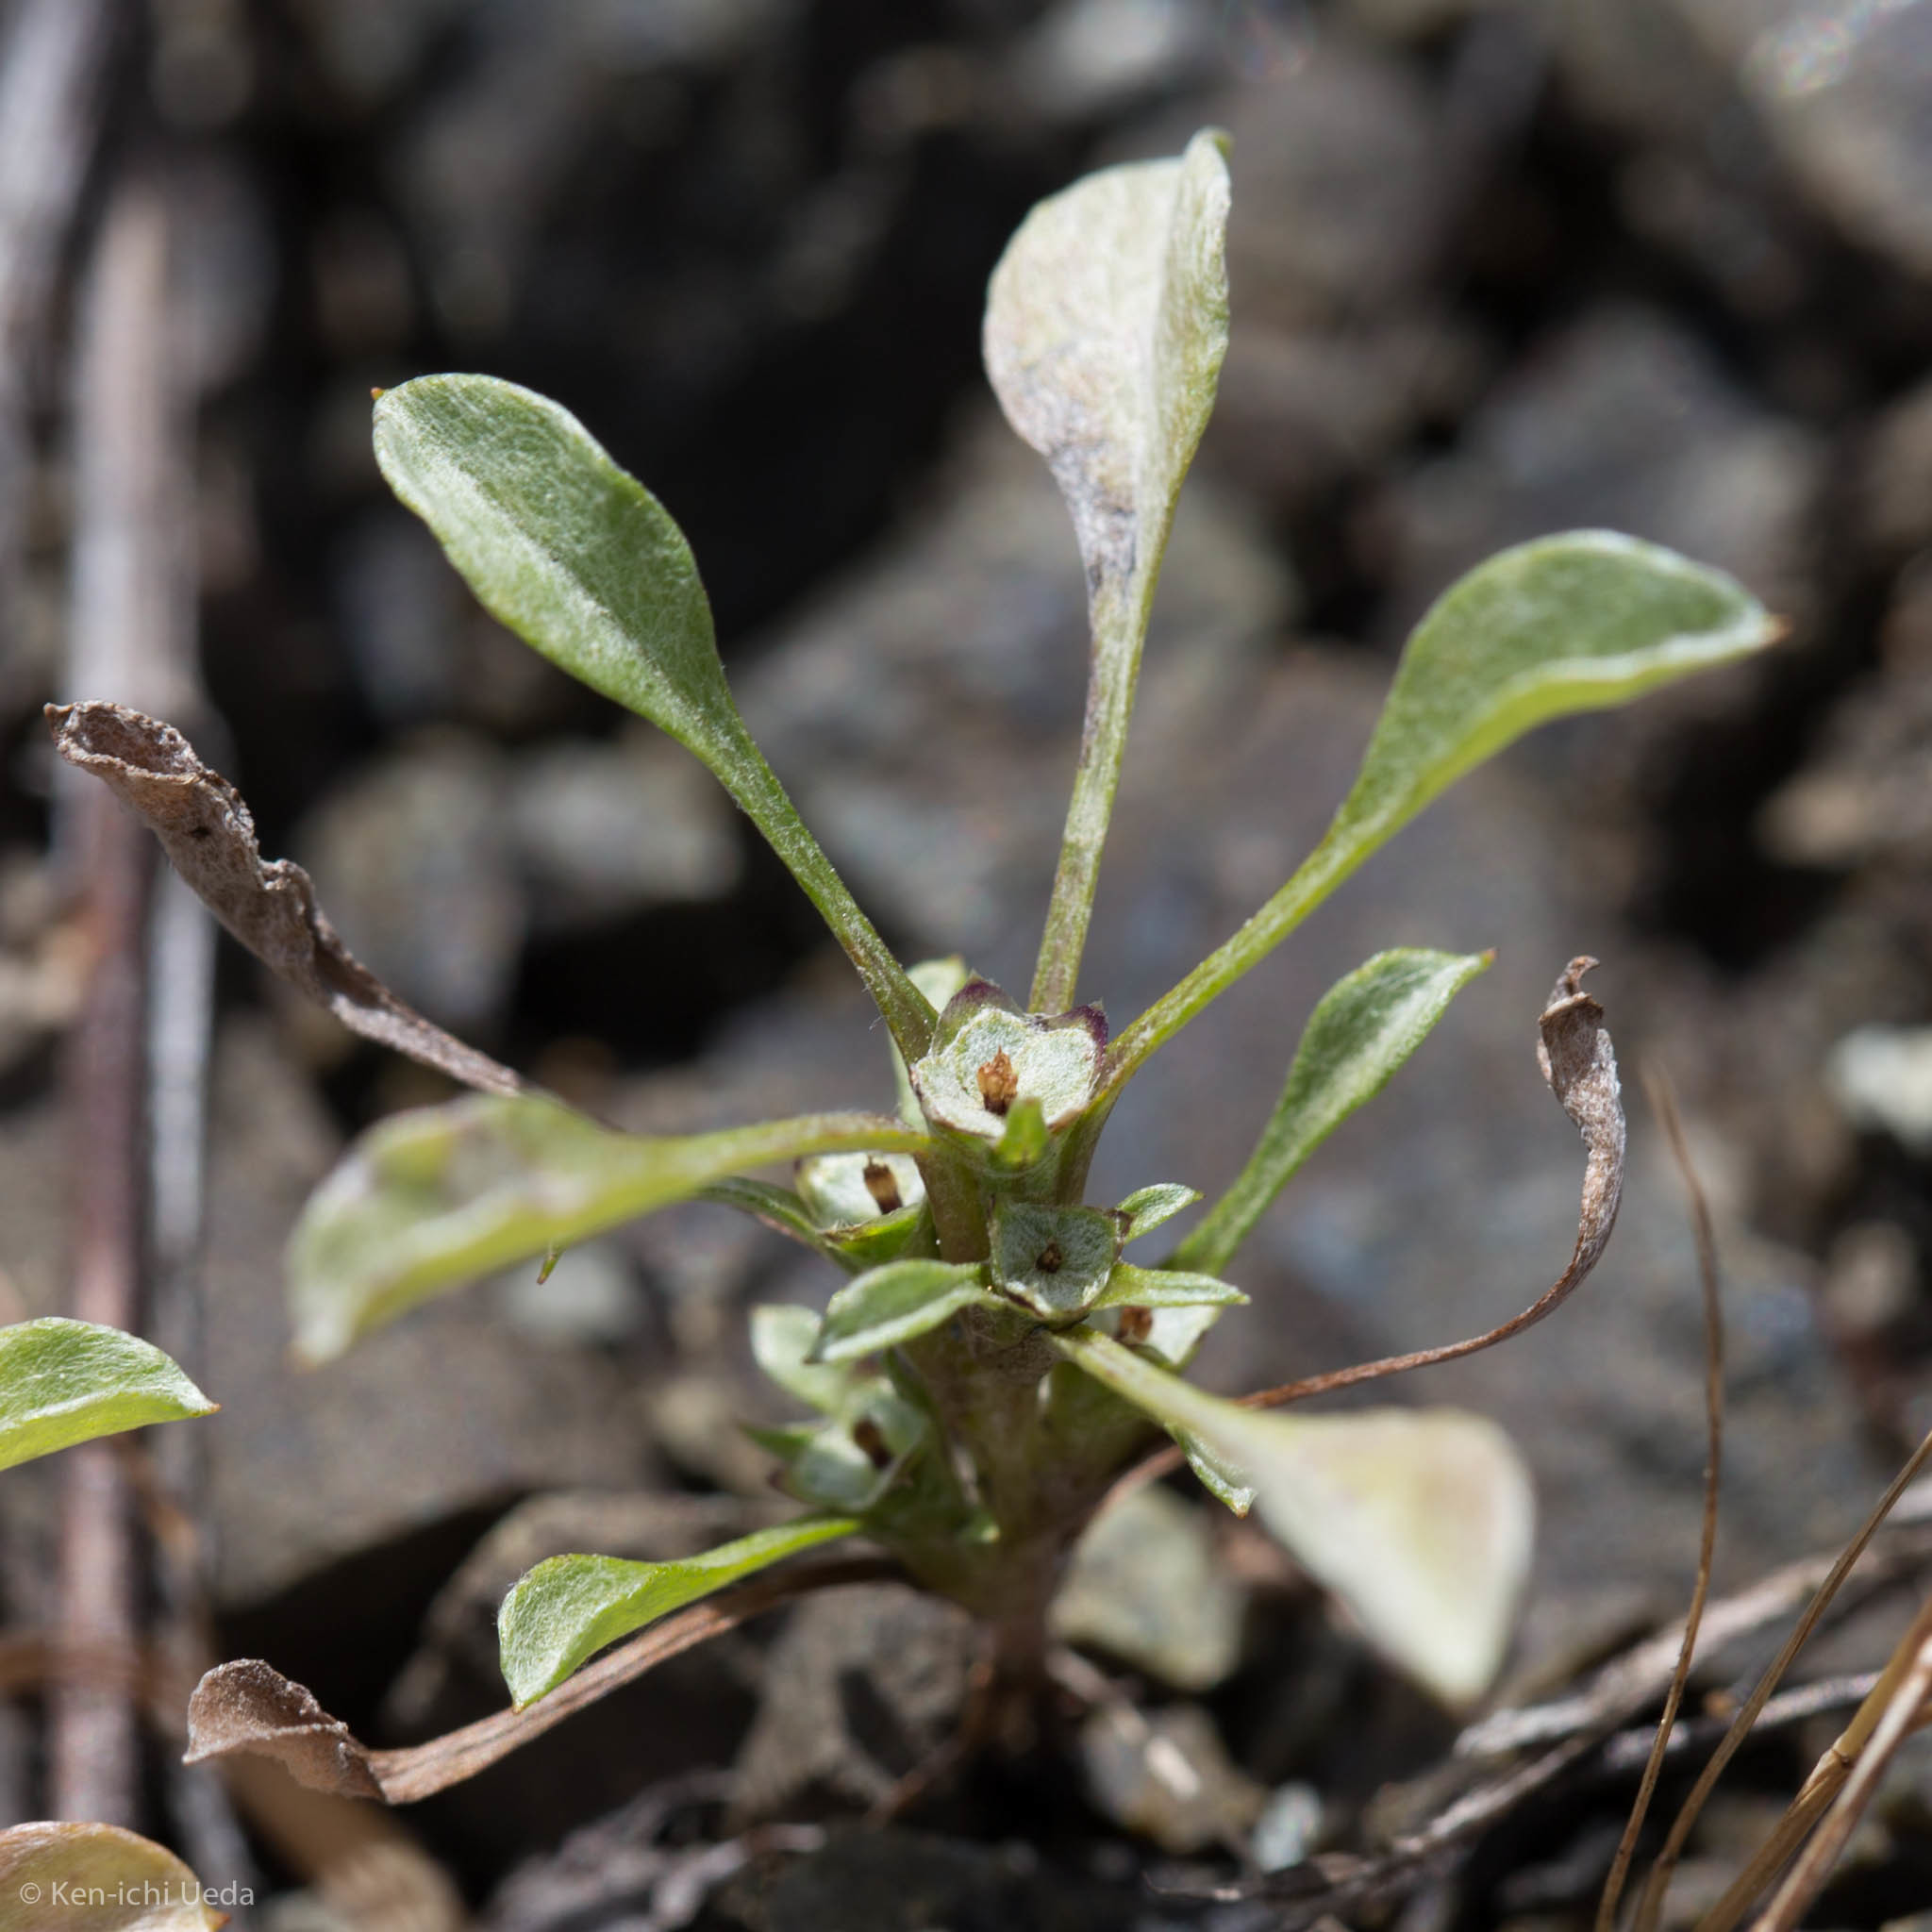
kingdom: Plantae
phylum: Tracheophyta
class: Magnoliopsida
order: Asterales
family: Asteraceae
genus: Hesperevax
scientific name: Hesperevax sparsiflora
